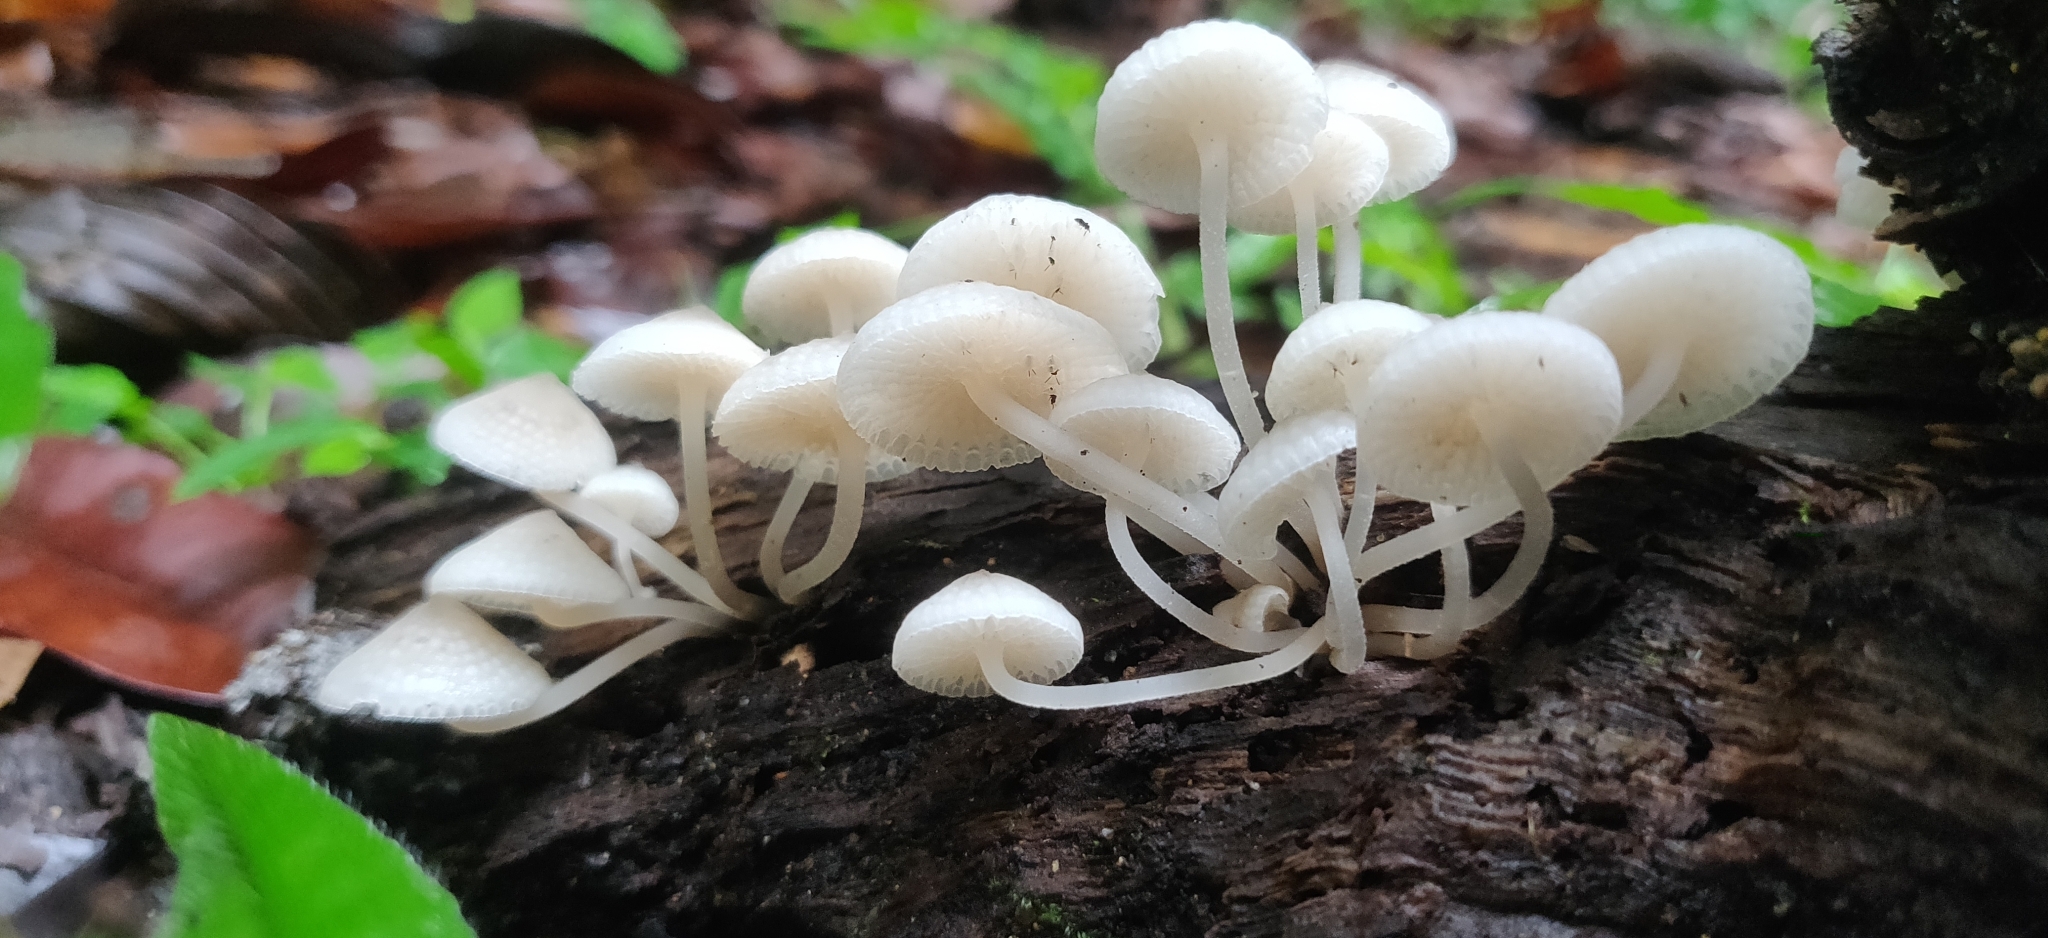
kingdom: Fungi
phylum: Basidiomycota
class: Agaricomycetes
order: Agaricales
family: Mycenaceae
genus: Filoboletus
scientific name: Filoboletus manipularis
